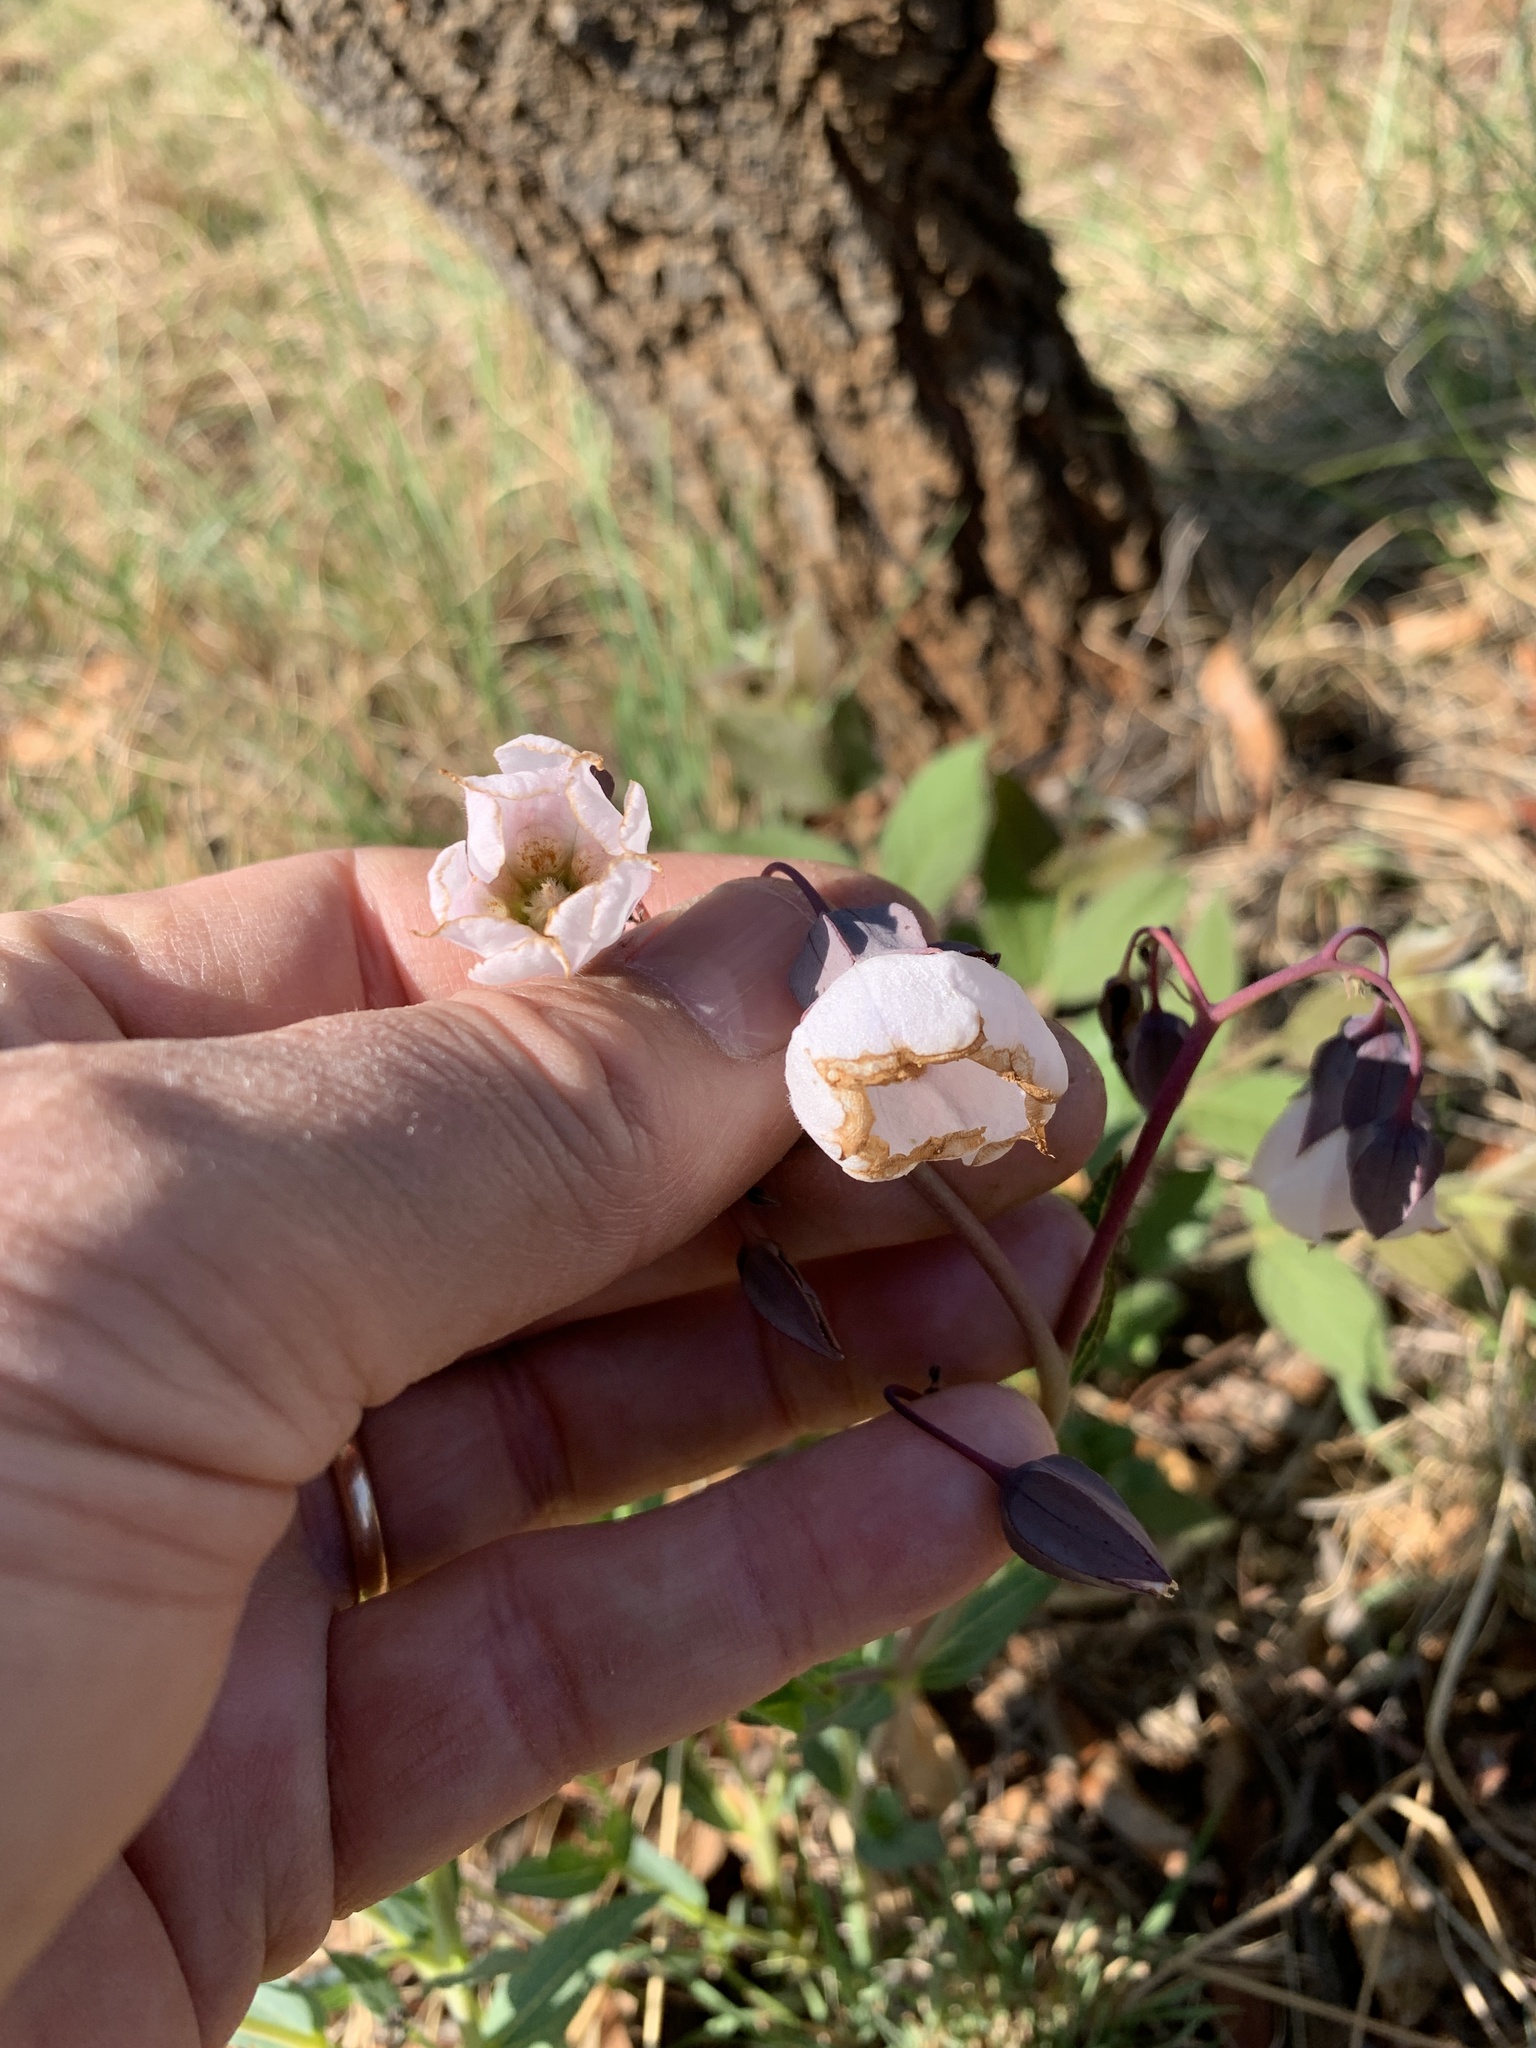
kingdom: Plantae
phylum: Tracheophyta
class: Magnoliopsida
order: Boraginales
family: Boraginaceae
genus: Trichodesma
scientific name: Trichodesma physaloides
